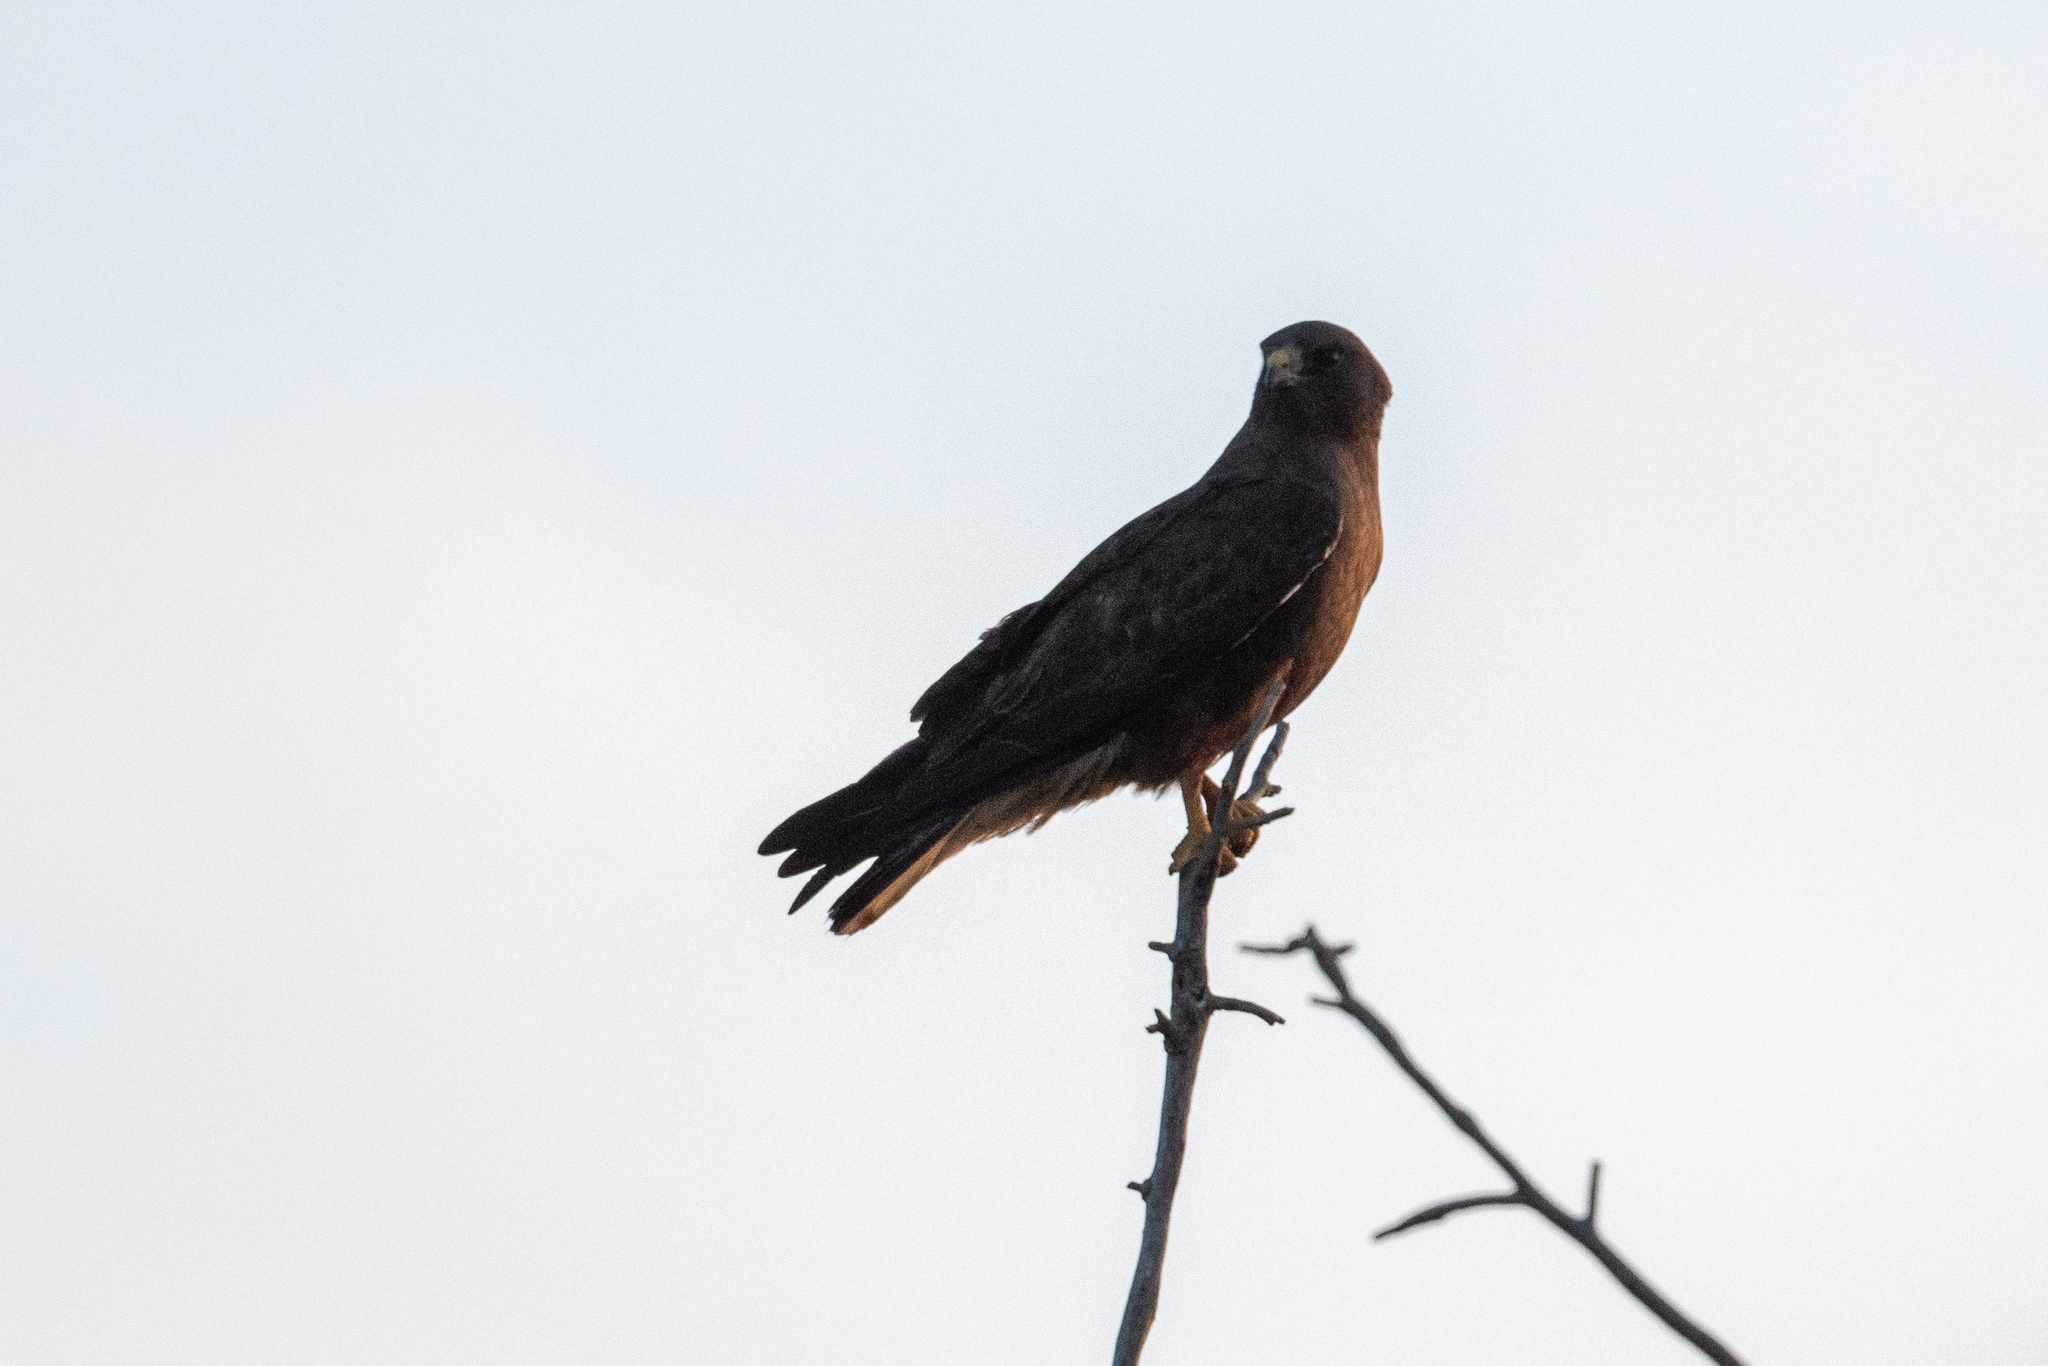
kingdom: Animalia
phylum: Chordata
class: Aves
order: Accipitriformes
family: Accipitridae
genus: Buteo
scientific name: Buteo swainsoni
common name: Swainson's hawk
